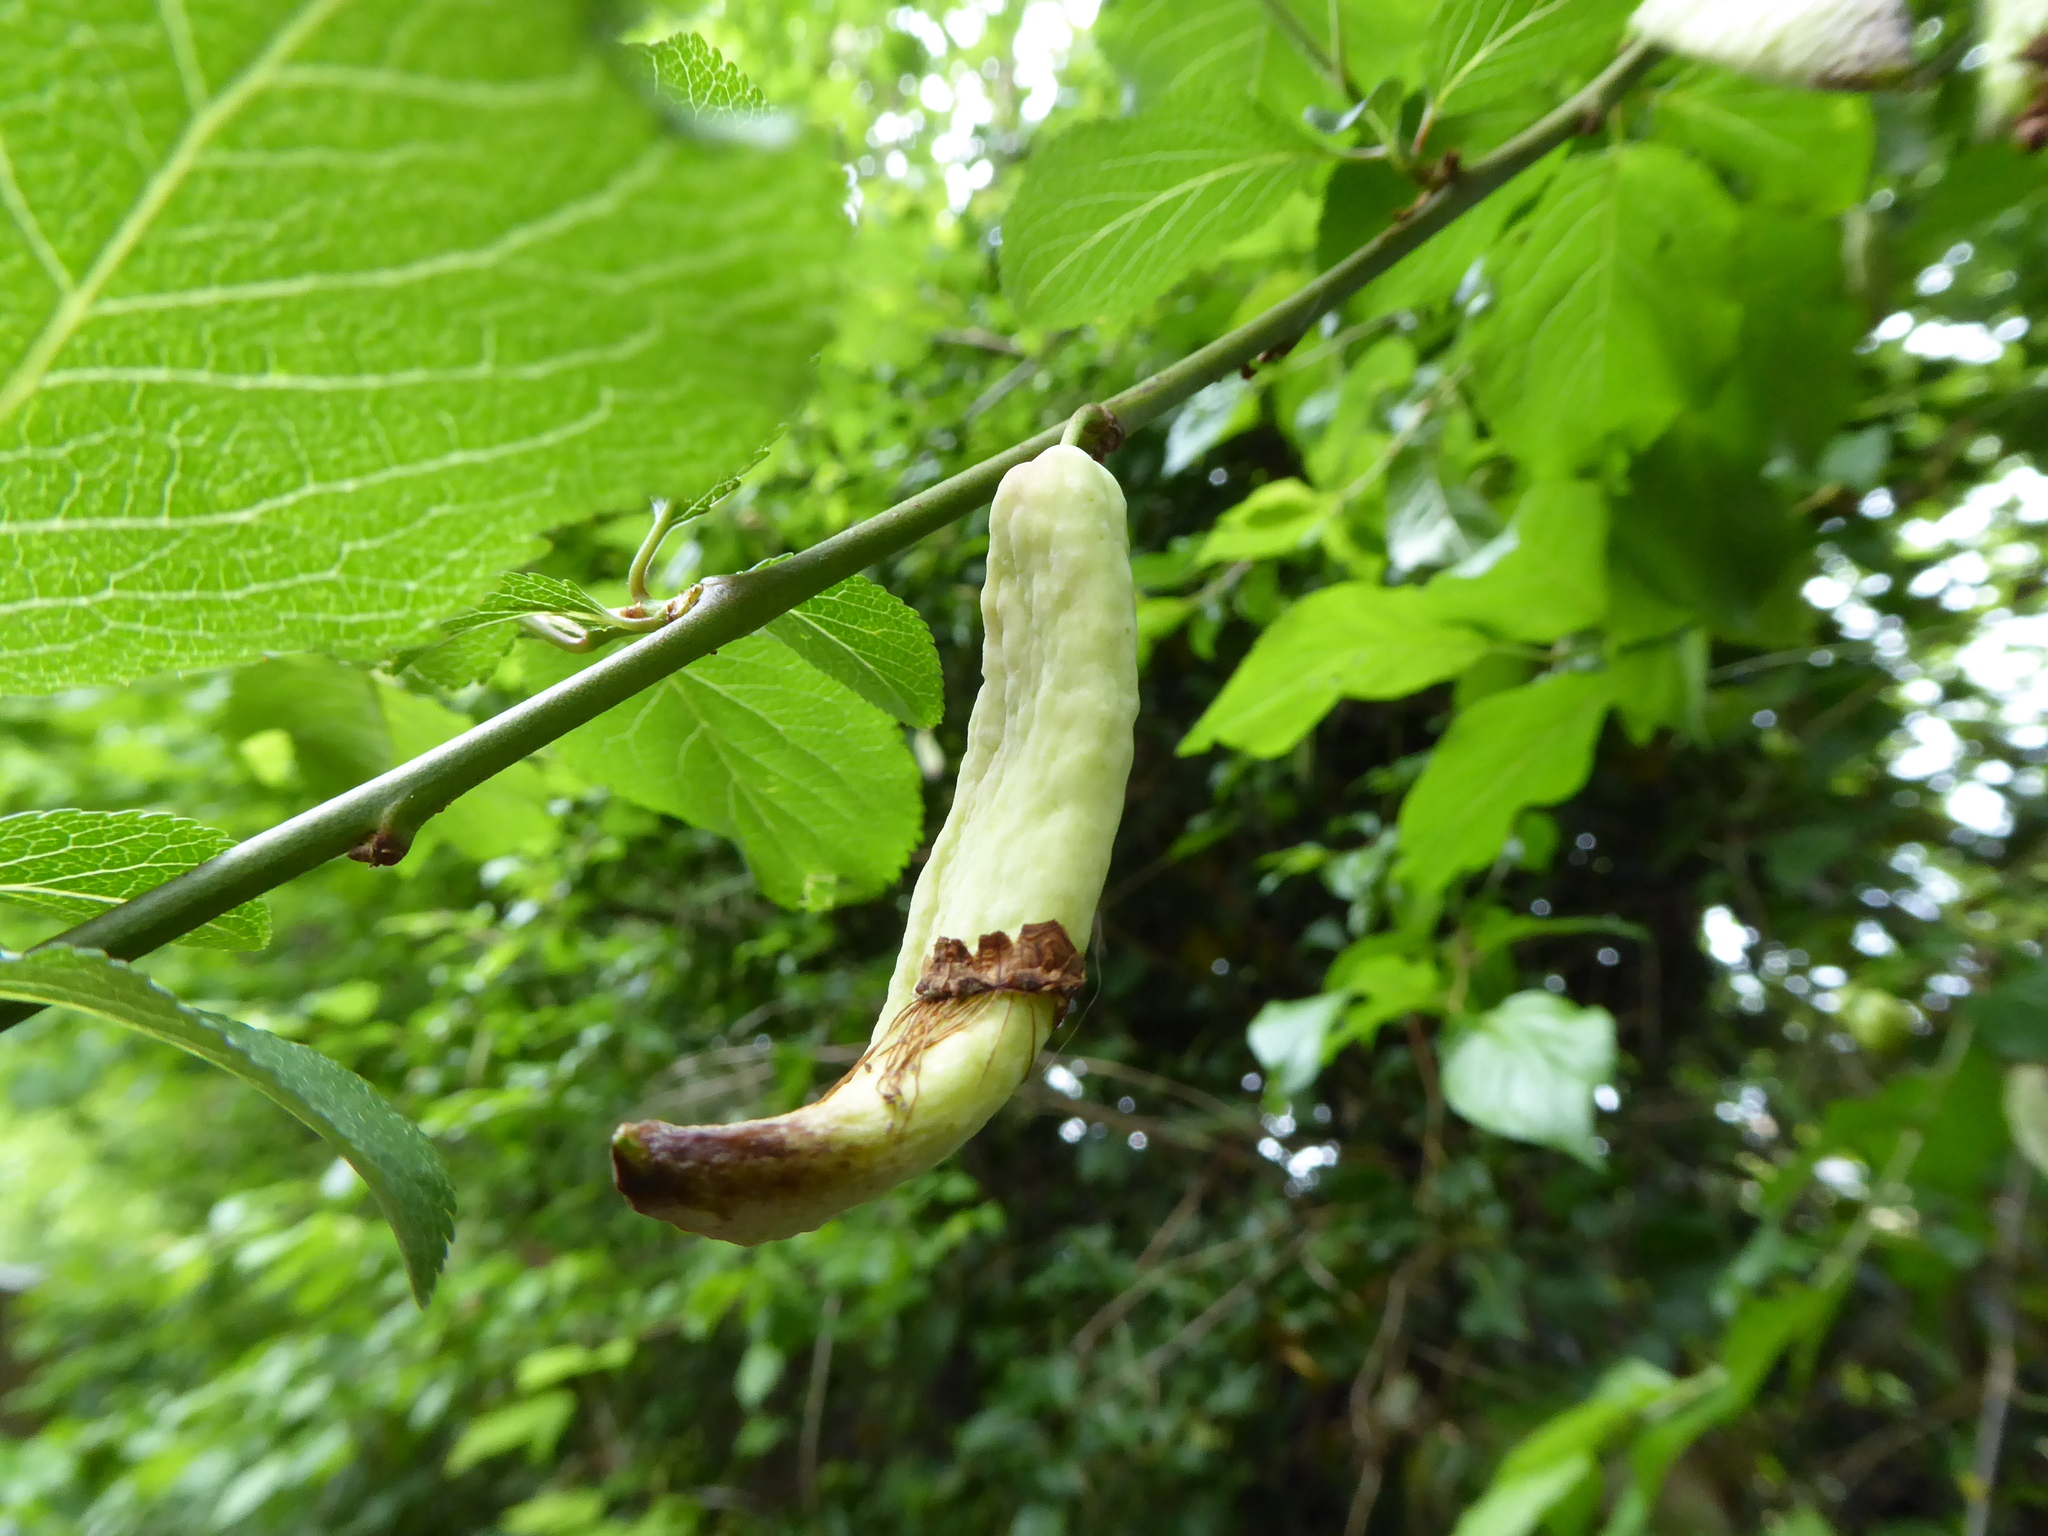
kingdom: Fungi
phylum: Ascomycota
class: Taphrinomycetes
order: Taphrinales
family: Taphrinaceae
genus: Taphrina
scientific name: Taphrina pruni
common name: Pocket plum
